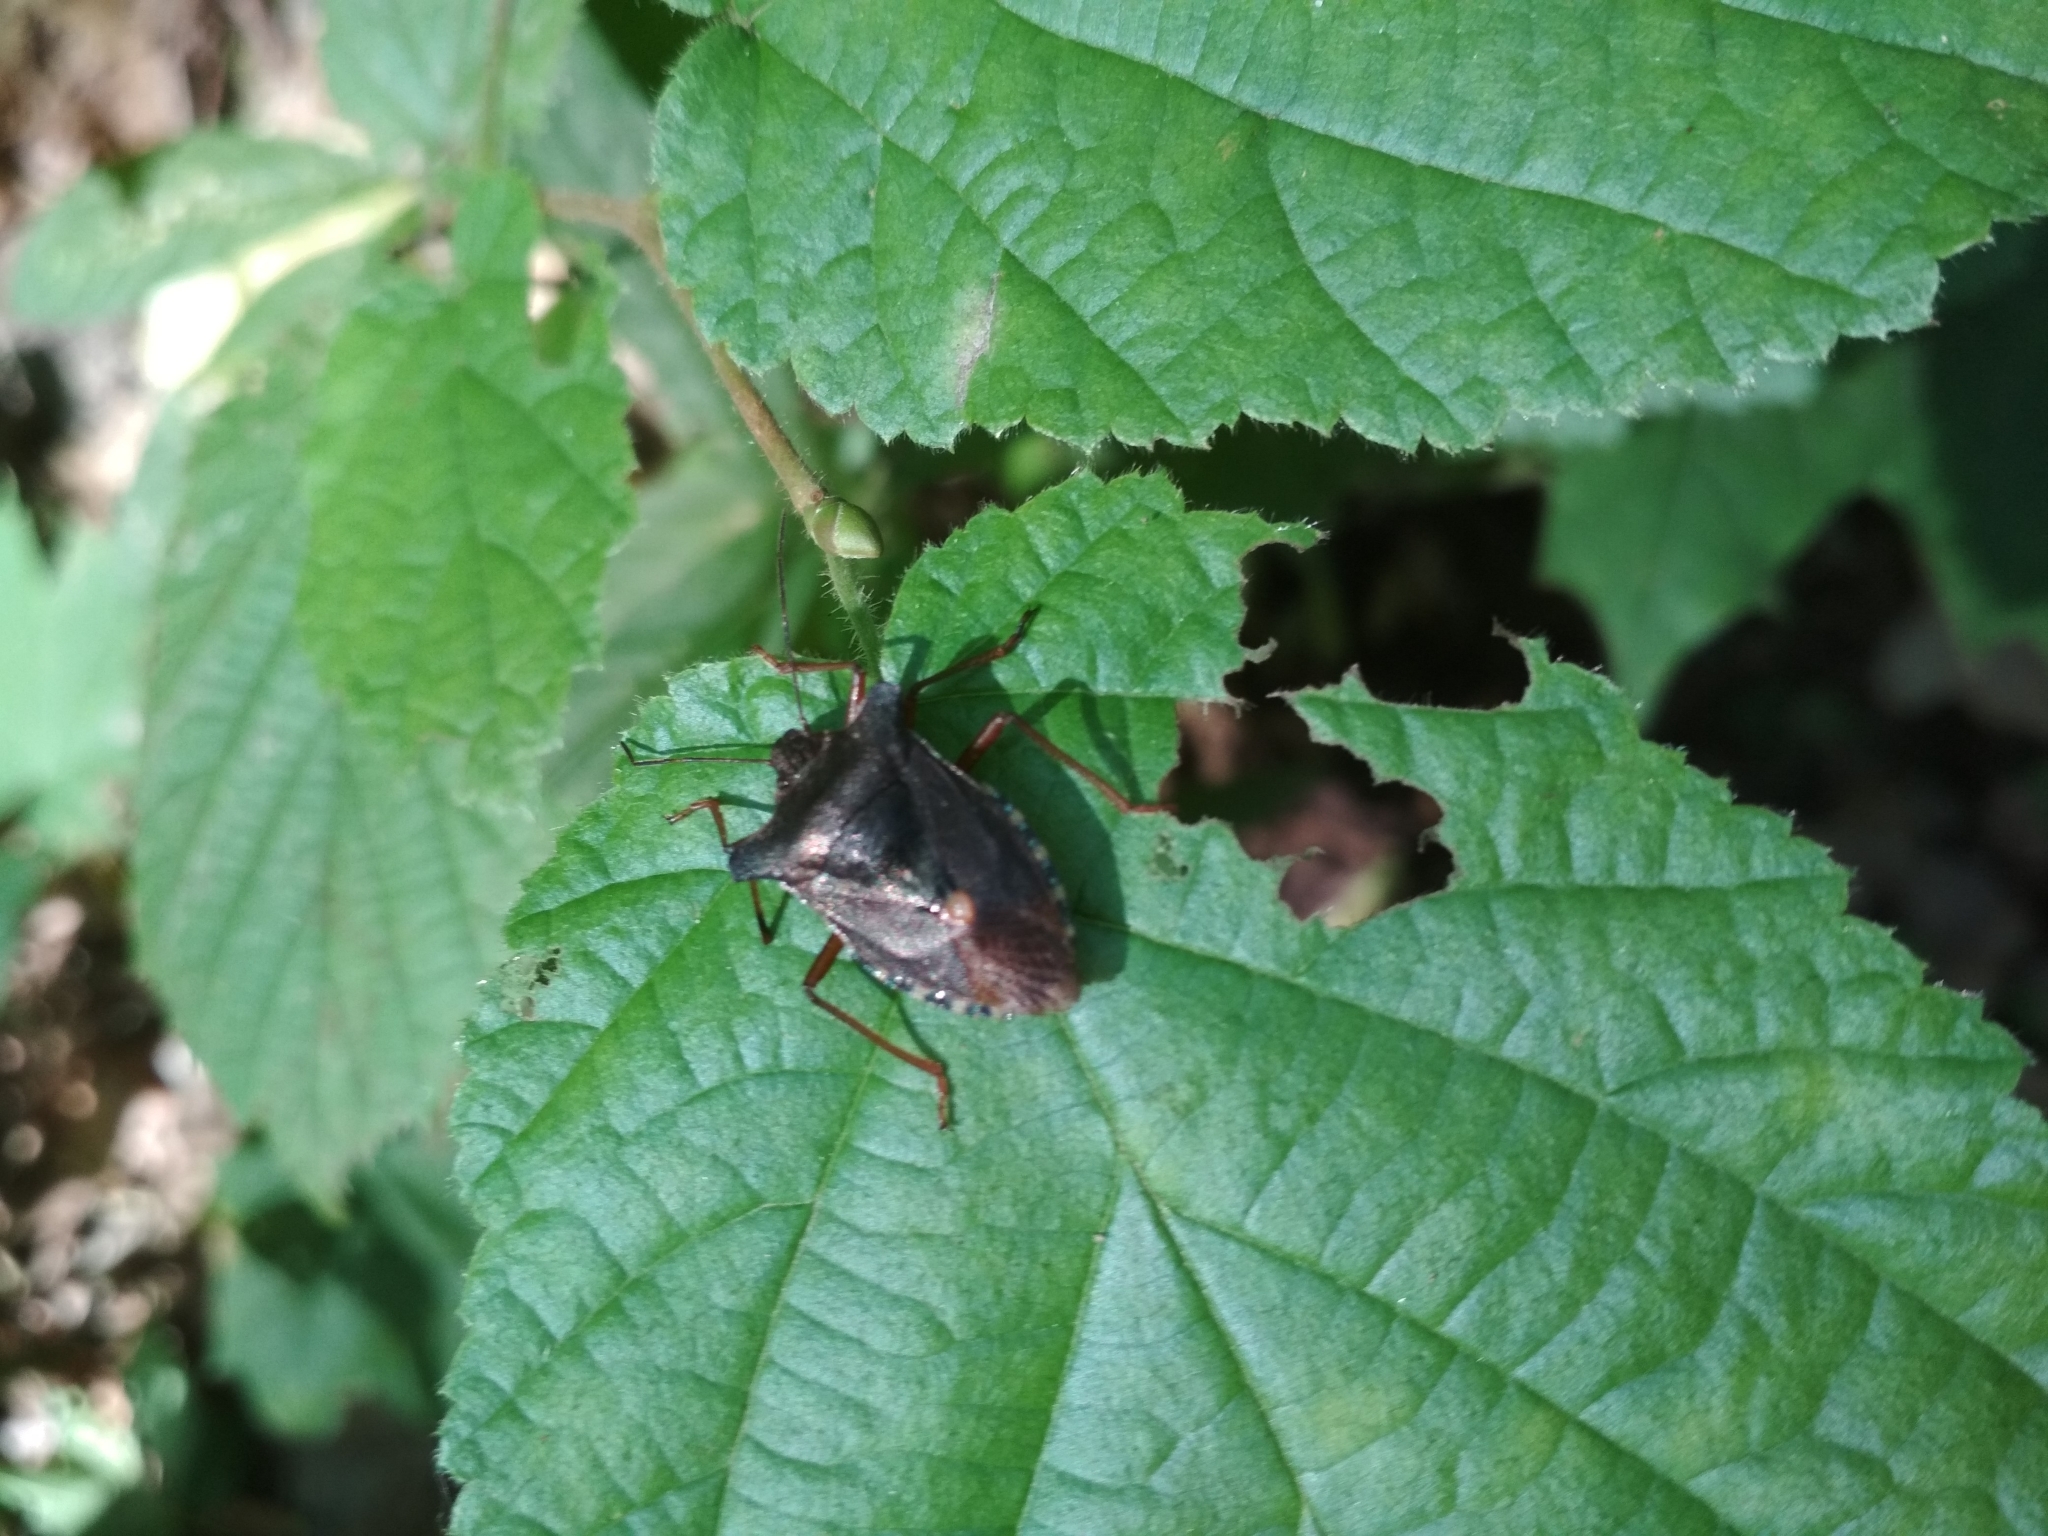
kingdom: Animalia
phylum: Arthropoda
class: Insecta
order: Hemiptera
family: Pentatomidae
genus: Pentatoma
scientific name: Pentatoma rufipes
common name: Forest bug
